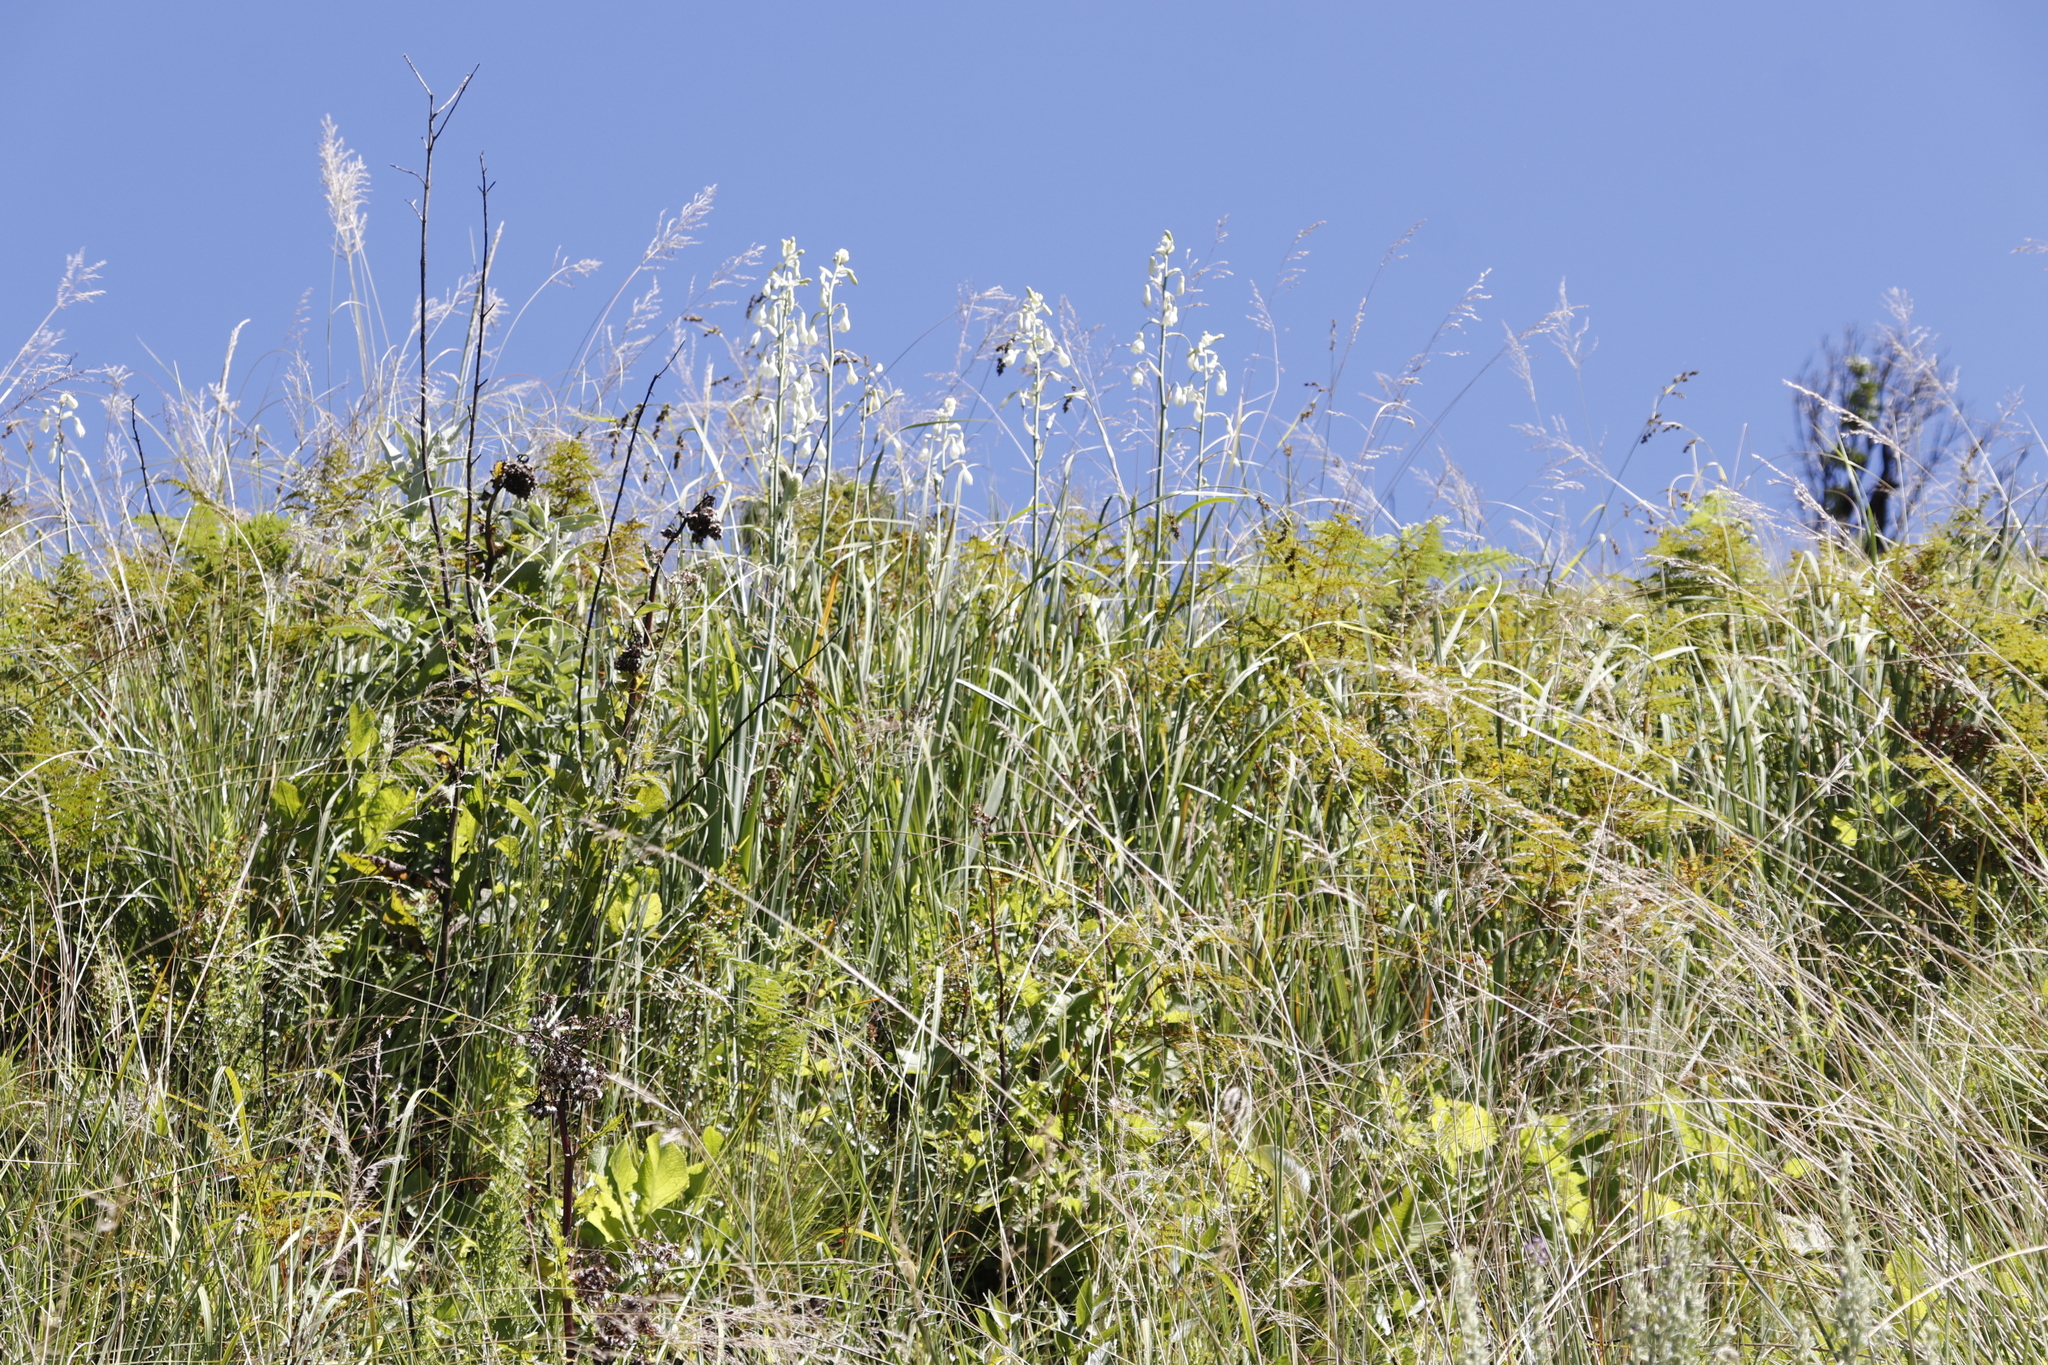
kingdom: Plantae
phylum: Tracheophyta
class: Liliopsida
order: Asparagales
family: Asparagaceae
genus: Ornithogalum
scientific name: Ornithogalum candicans
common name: Summer-hyacinth
